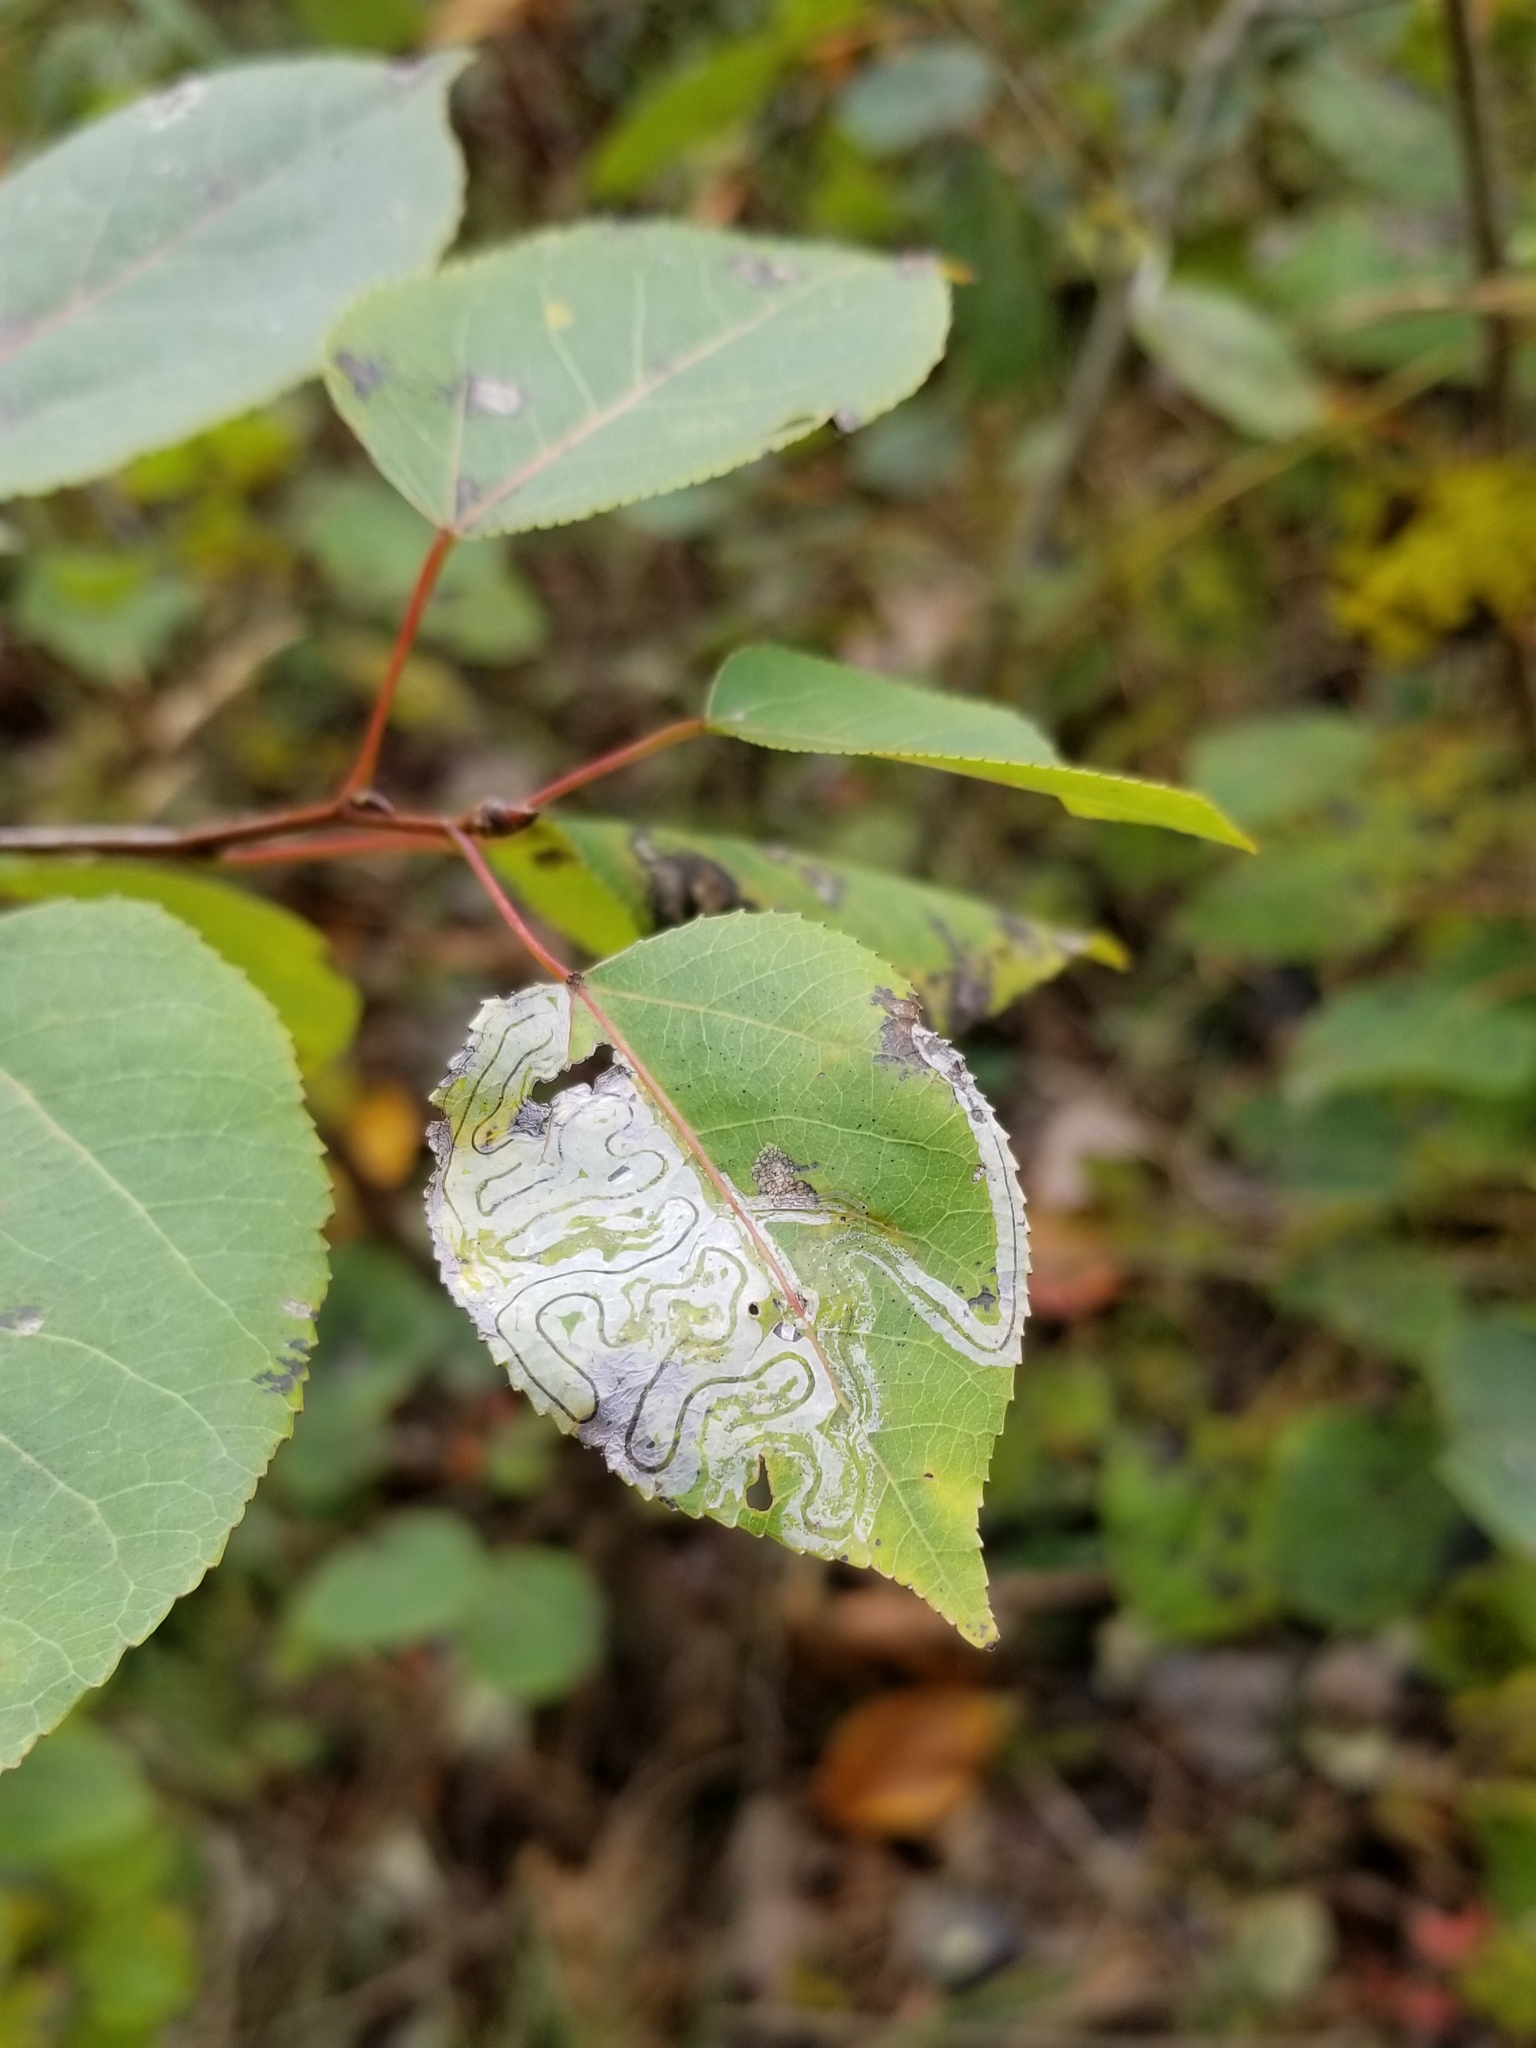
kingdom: Plantae
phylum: Tracheophyta
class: Magnoliopsida
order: Malpighiales
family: Salicaceae
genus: Populus
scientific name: Populus tremuloides
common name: Quaking aspen
